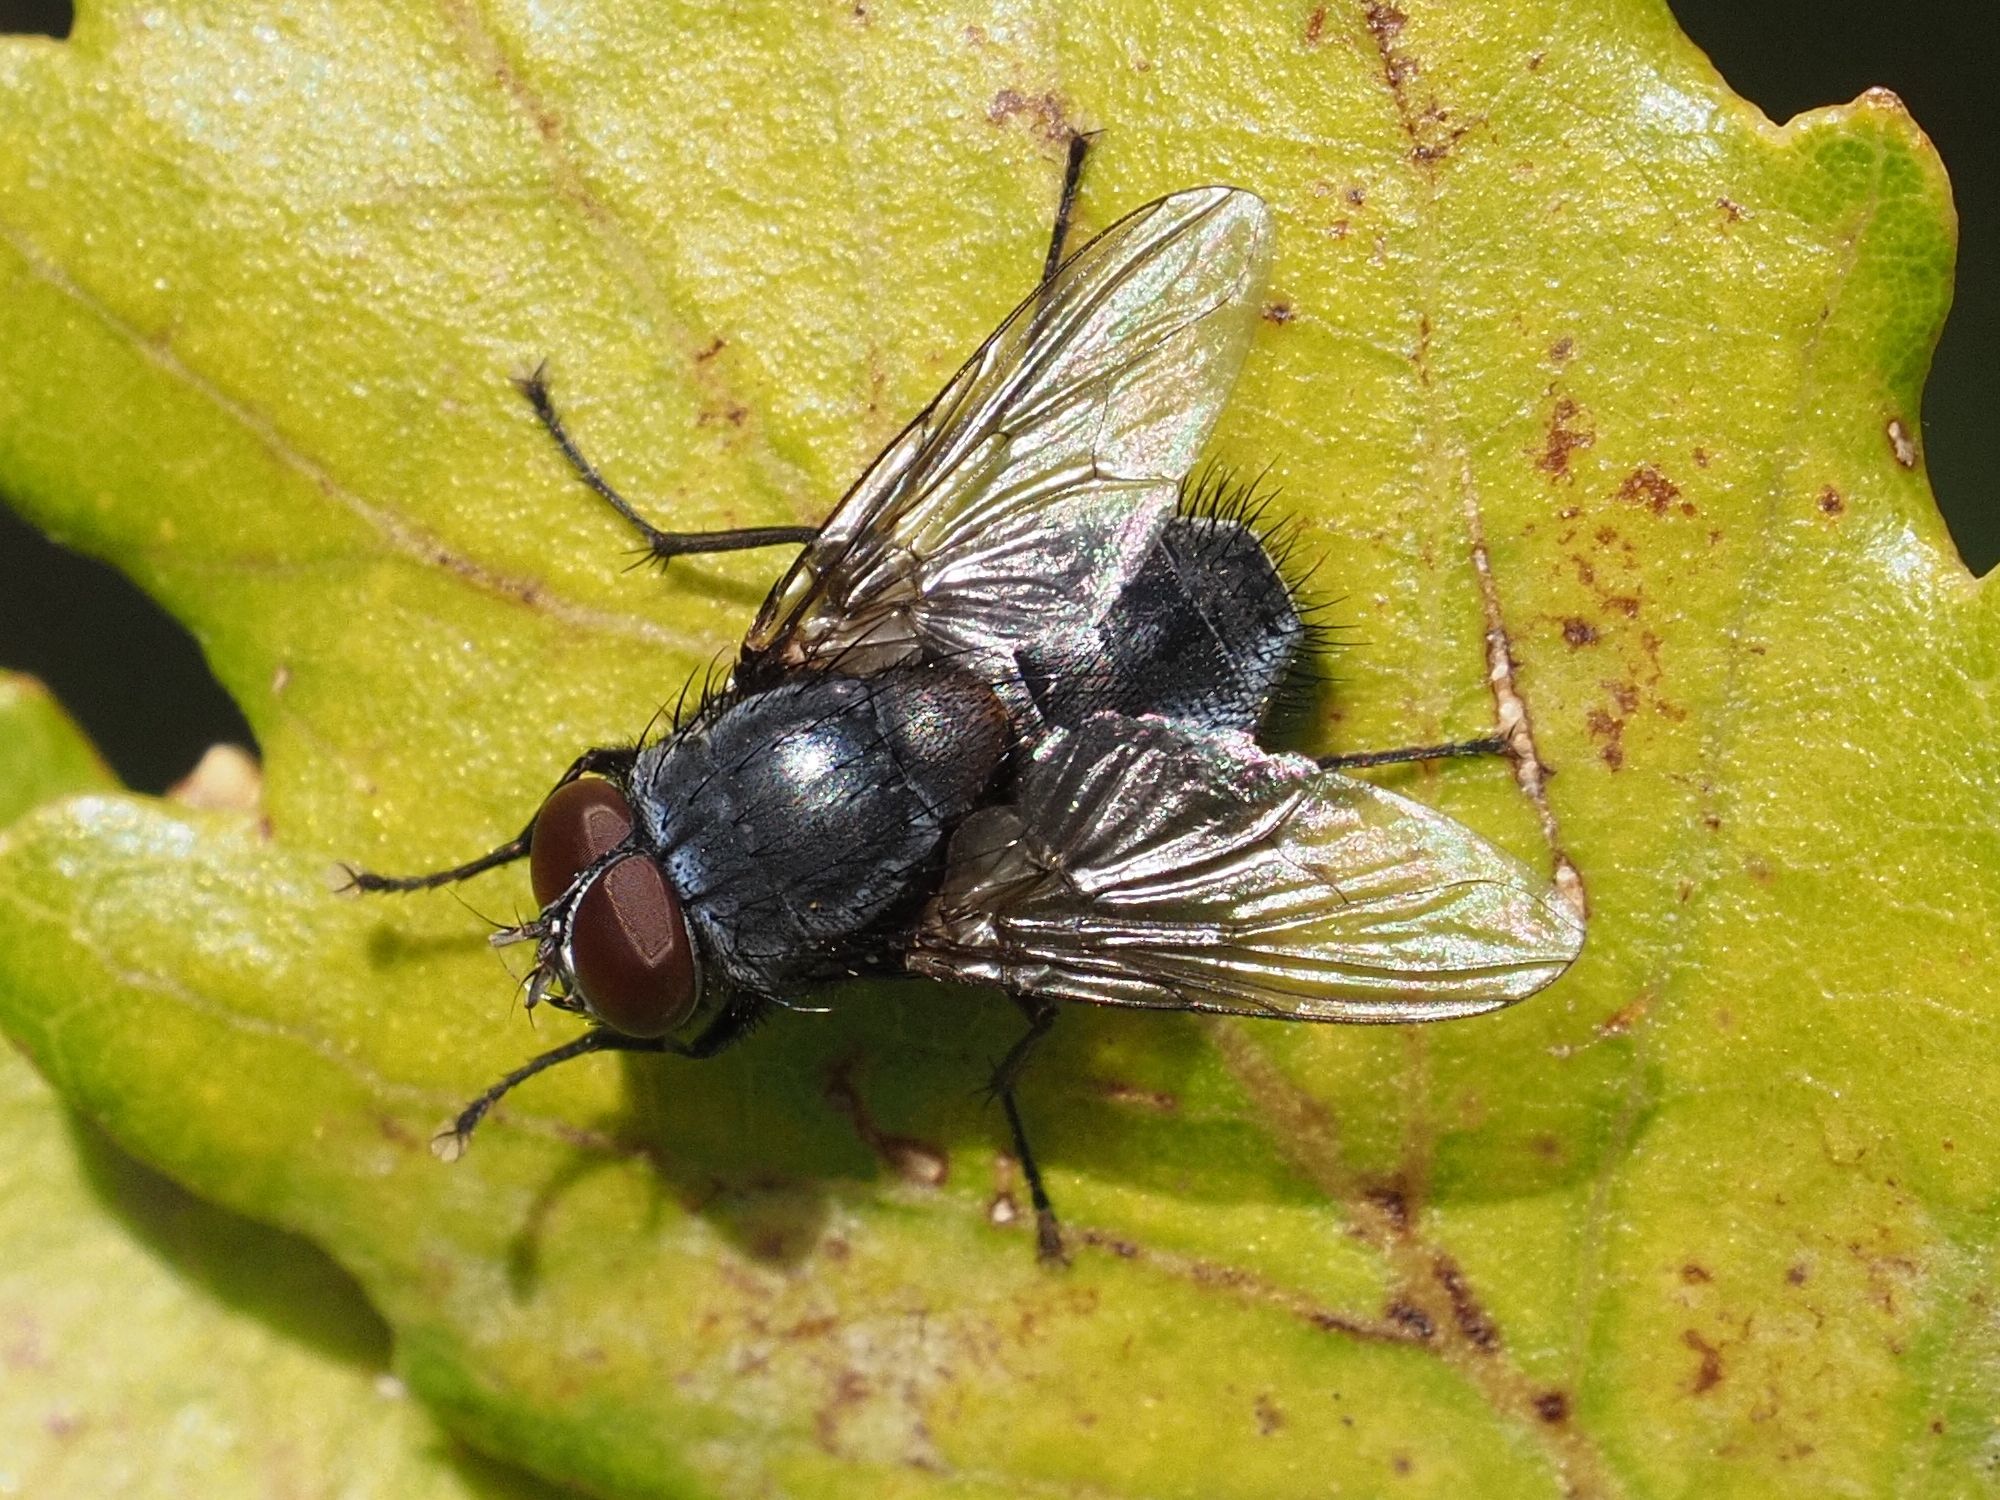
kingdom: Animalia
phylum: Arthropoda
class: Insecta
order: Diptera
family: Muscidae
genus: Muscina
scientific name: Muscina pascuorum
